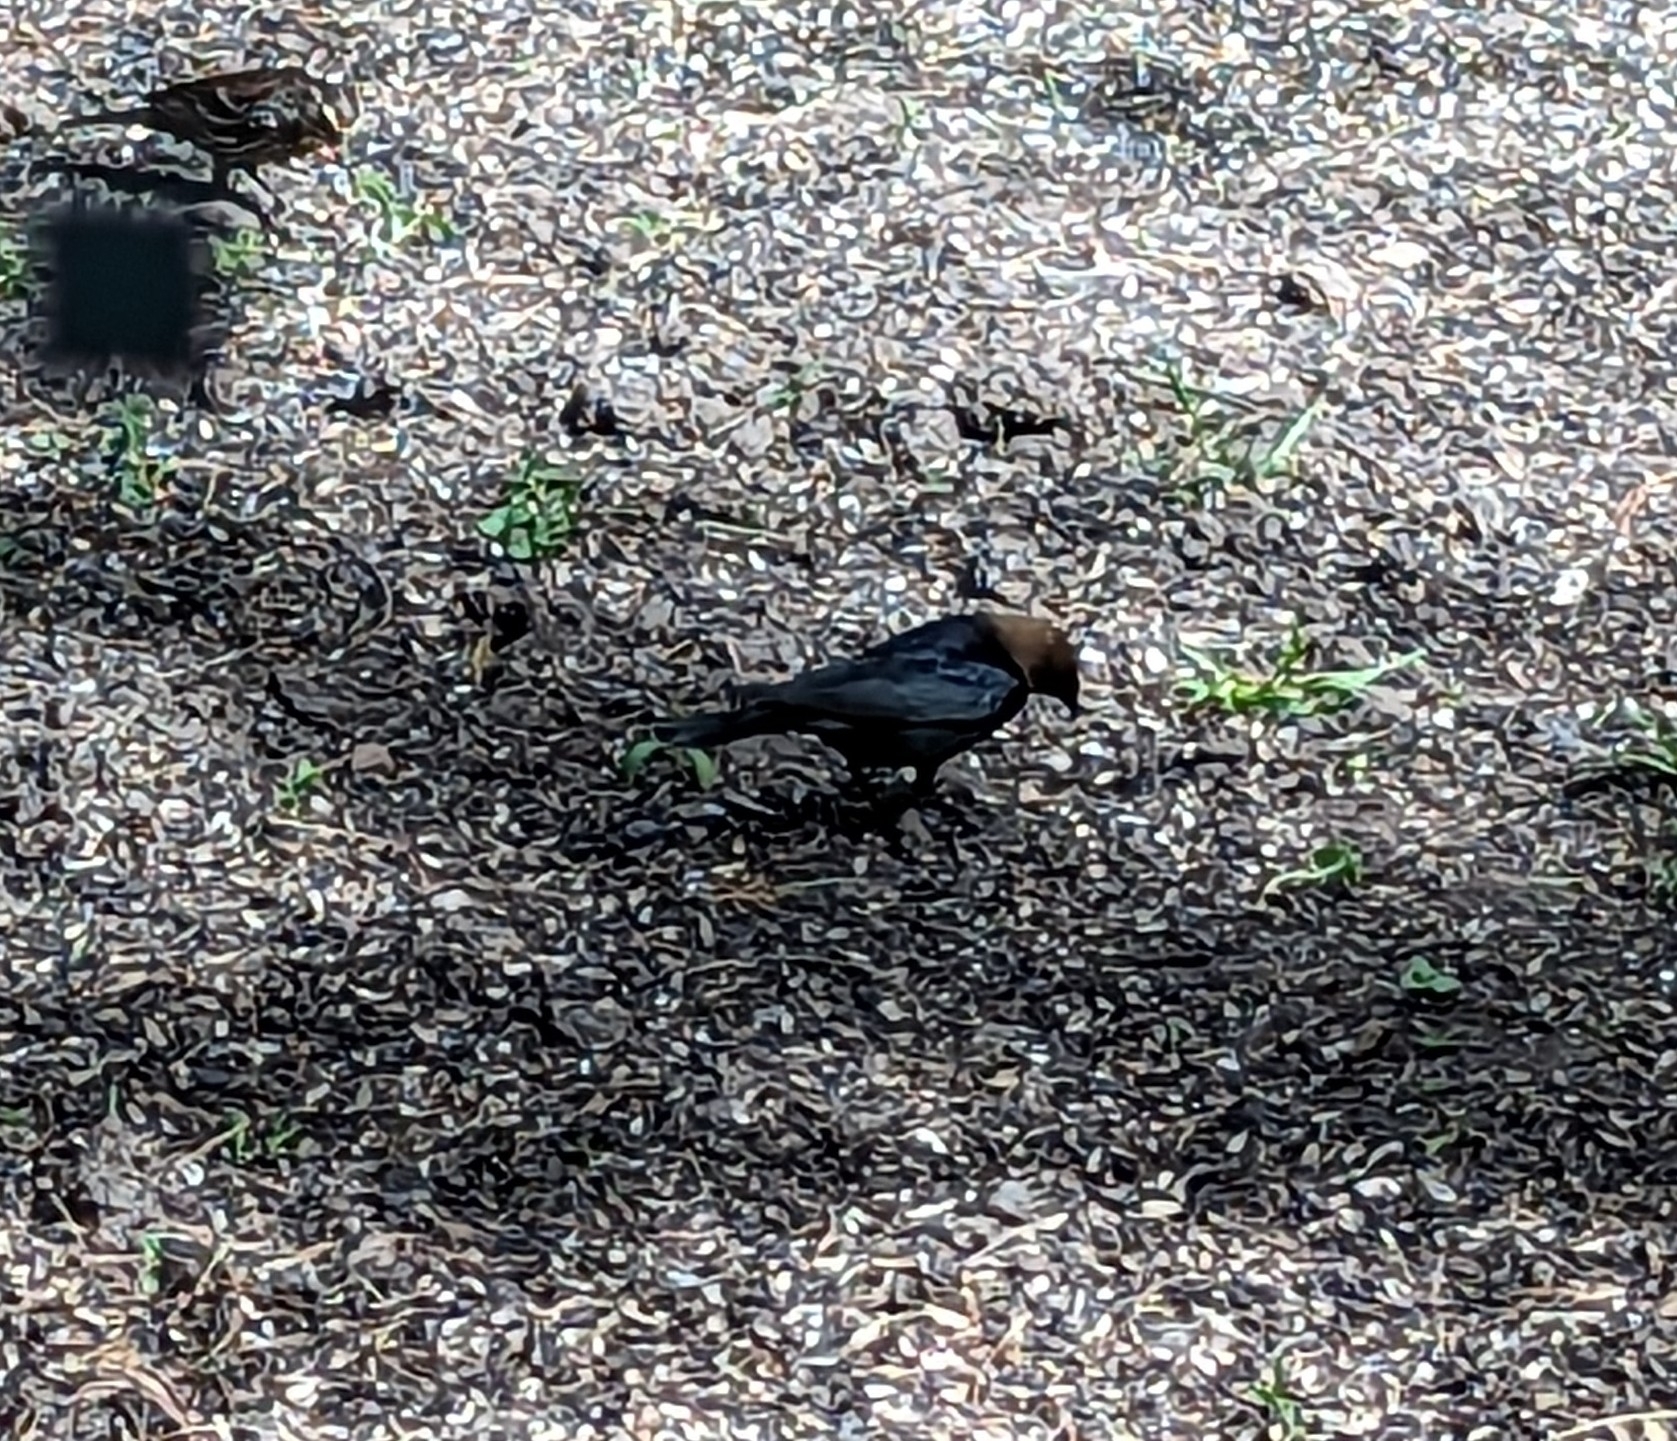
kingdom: Animalia
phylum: Chordata
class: Aves
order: Passeriformes
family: Icteridae
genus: Molothrus
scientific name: Molothrus ater
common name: Brown-headed cowbird
